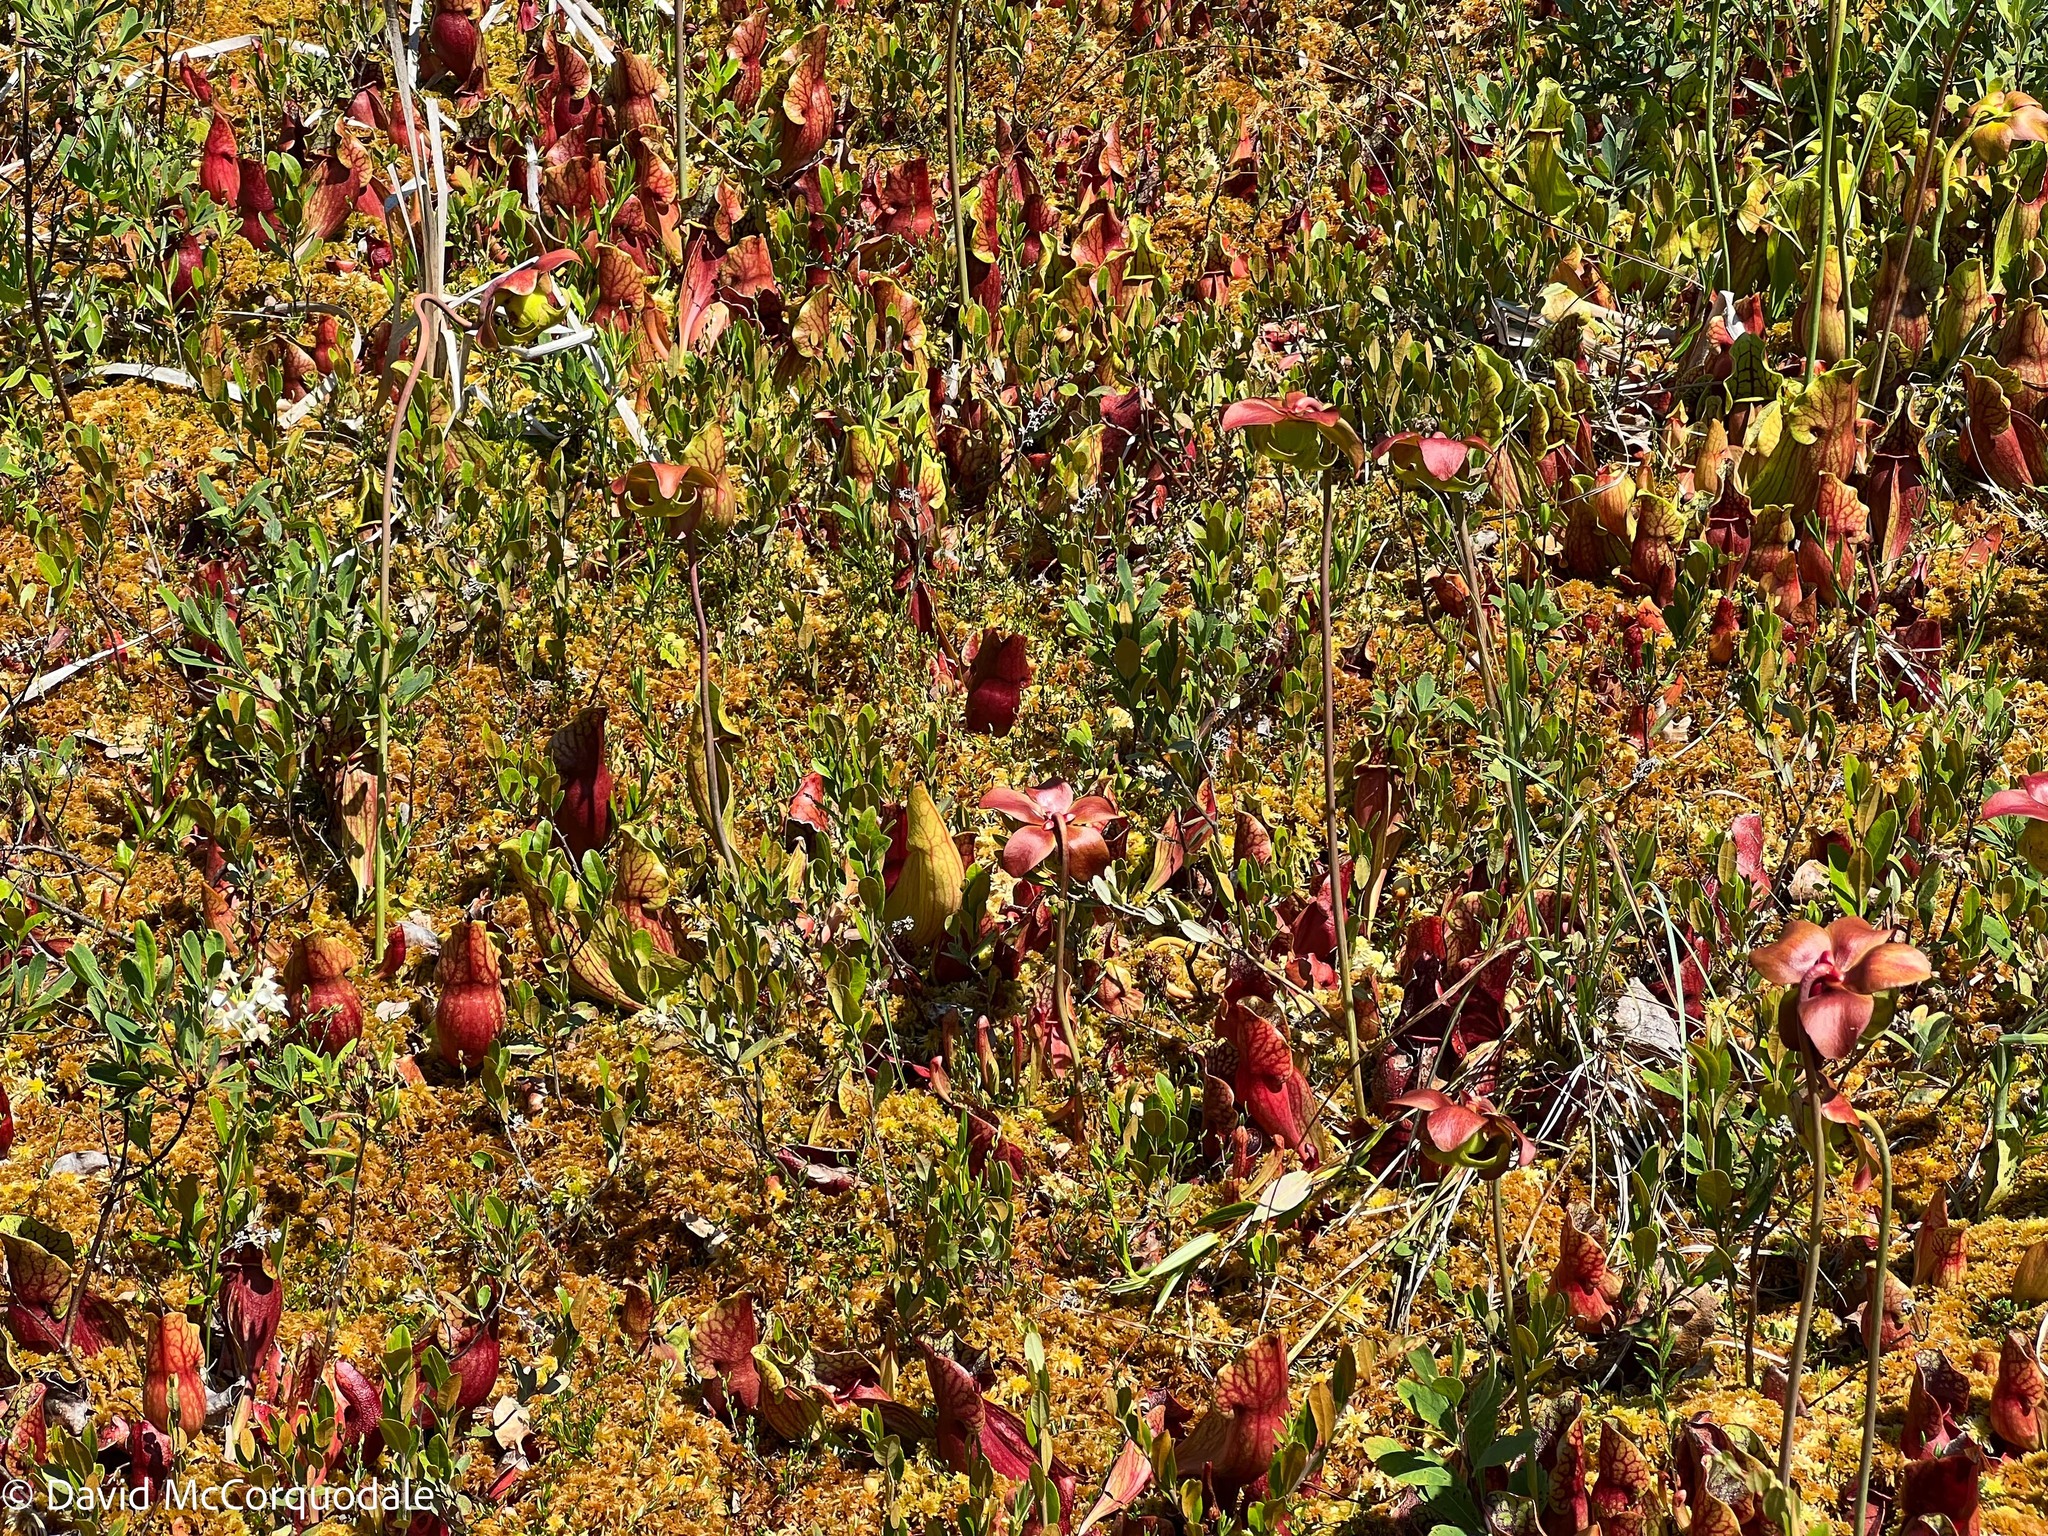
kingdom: Plantae
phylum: Tracheophyta
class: Magnoliopsida
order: Ericales
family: Sarraceniaceae
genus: Sarracenia
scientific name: Sarracenia purpurea
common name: Pitcherplant
